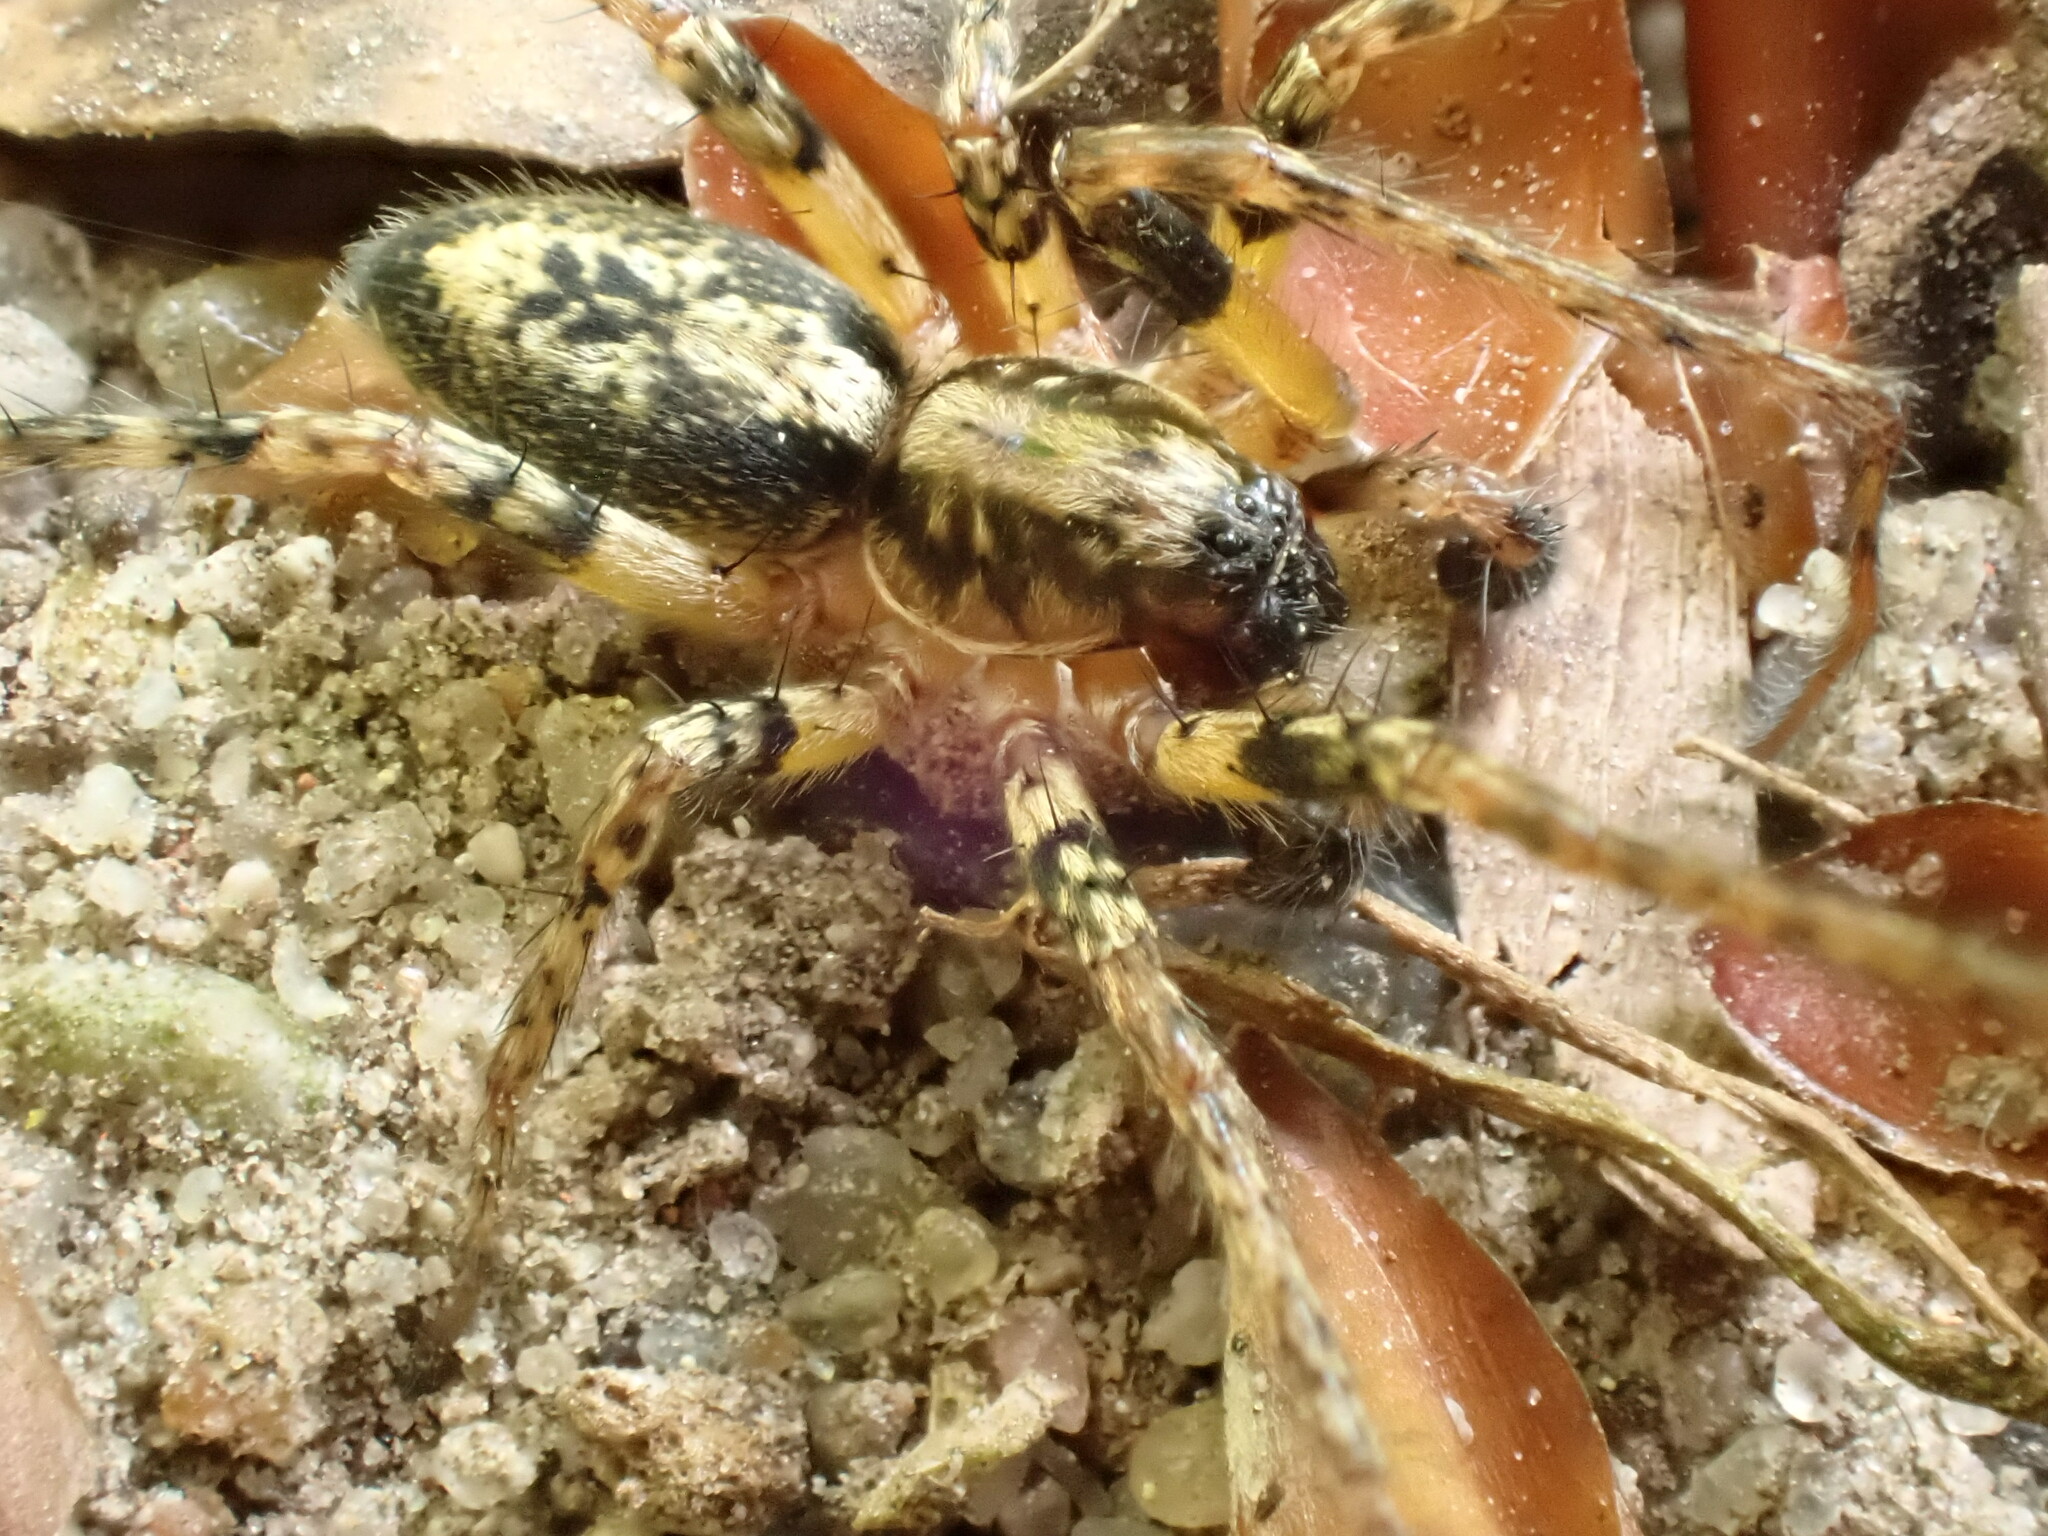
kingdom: Animalia
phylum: Arthropoda
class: Arachnida
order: Araneae
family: Anyphaenidae
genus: Anyphaena
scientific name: Anyphaena accentuata
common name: Buzzing spider
